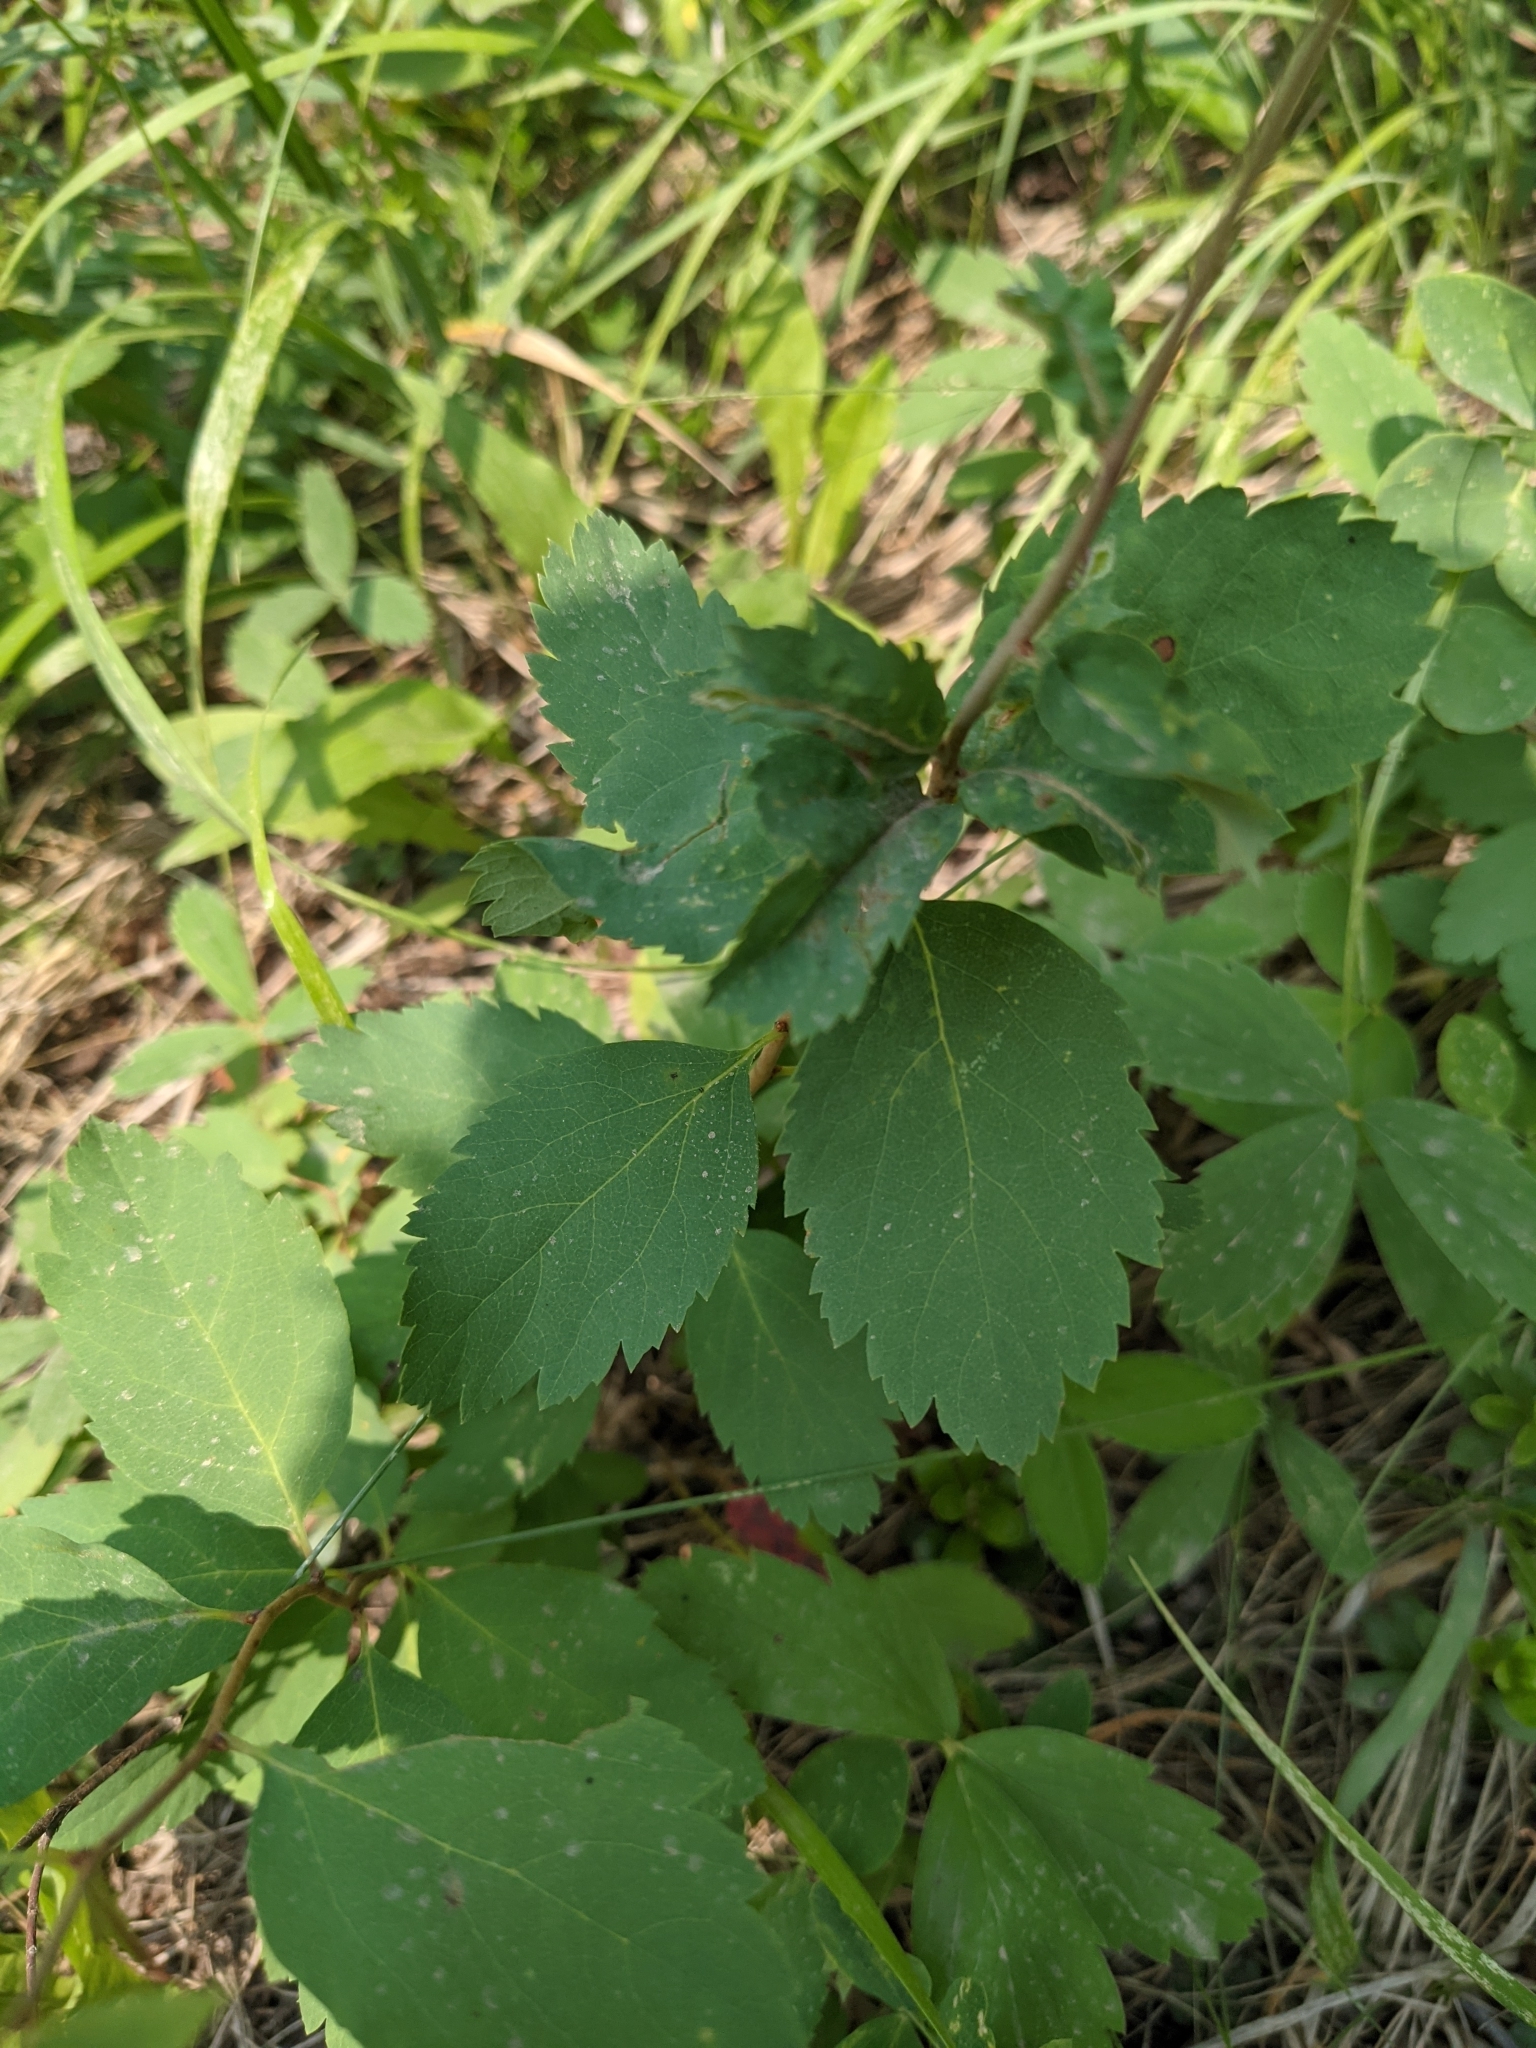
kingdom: Plantae
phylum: Tracheophyta
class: Magnoliopsida
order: Rosales
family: Rosaceae
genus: Spiraea
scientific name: Spiraea lucida
